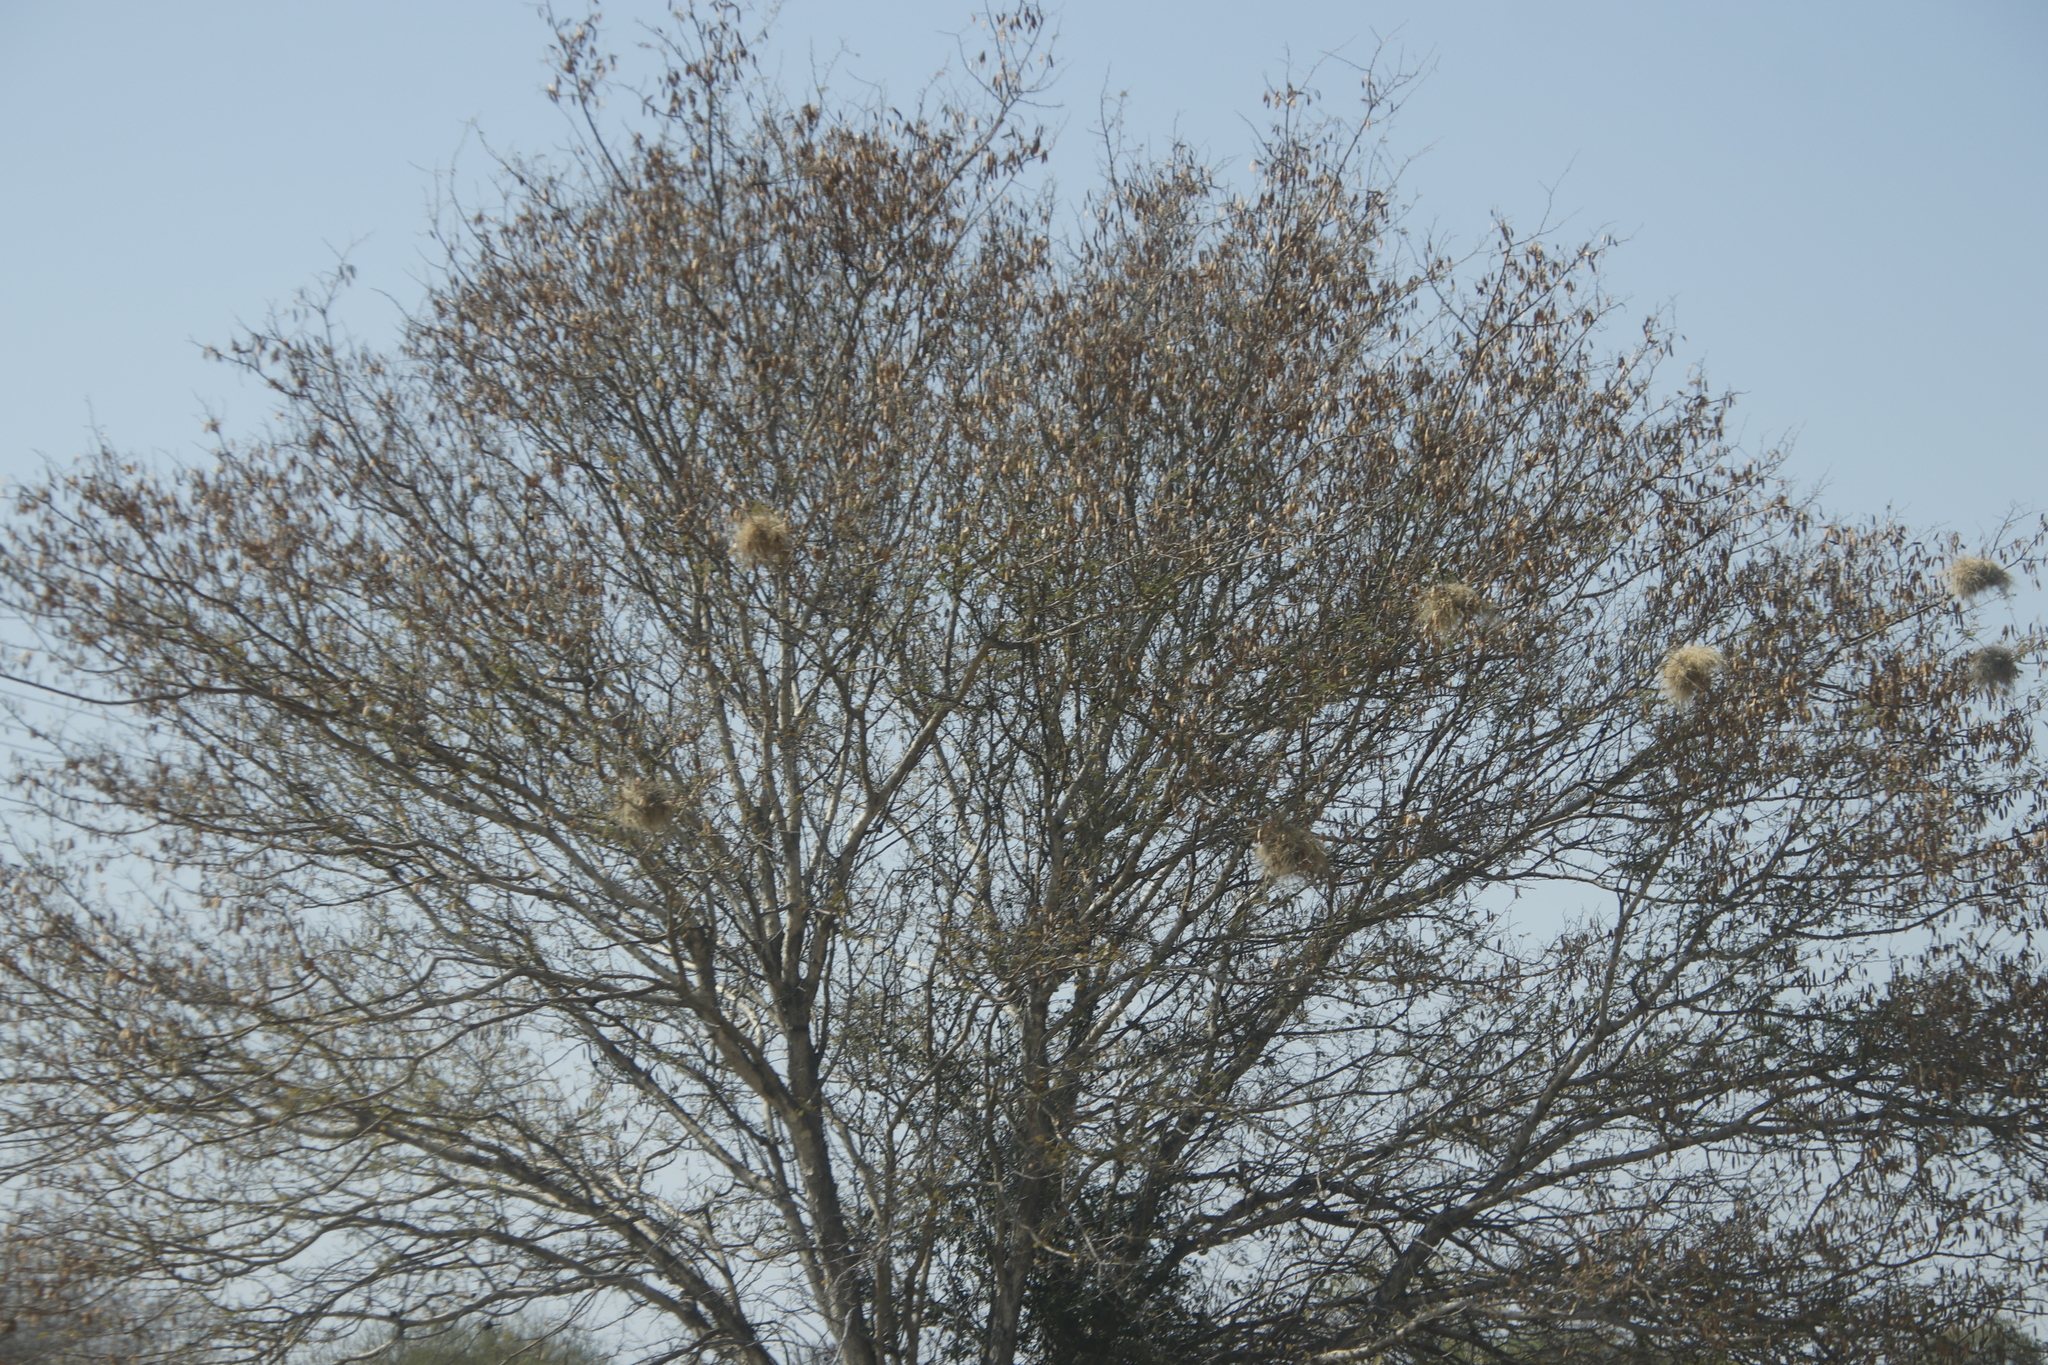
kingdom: Animalia
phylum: Chordata
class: Aves
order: Passeriformes
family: Passeridae
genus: Plocepasser
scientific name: Plocepasser mahali
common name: White-browed sparrow-weaver
